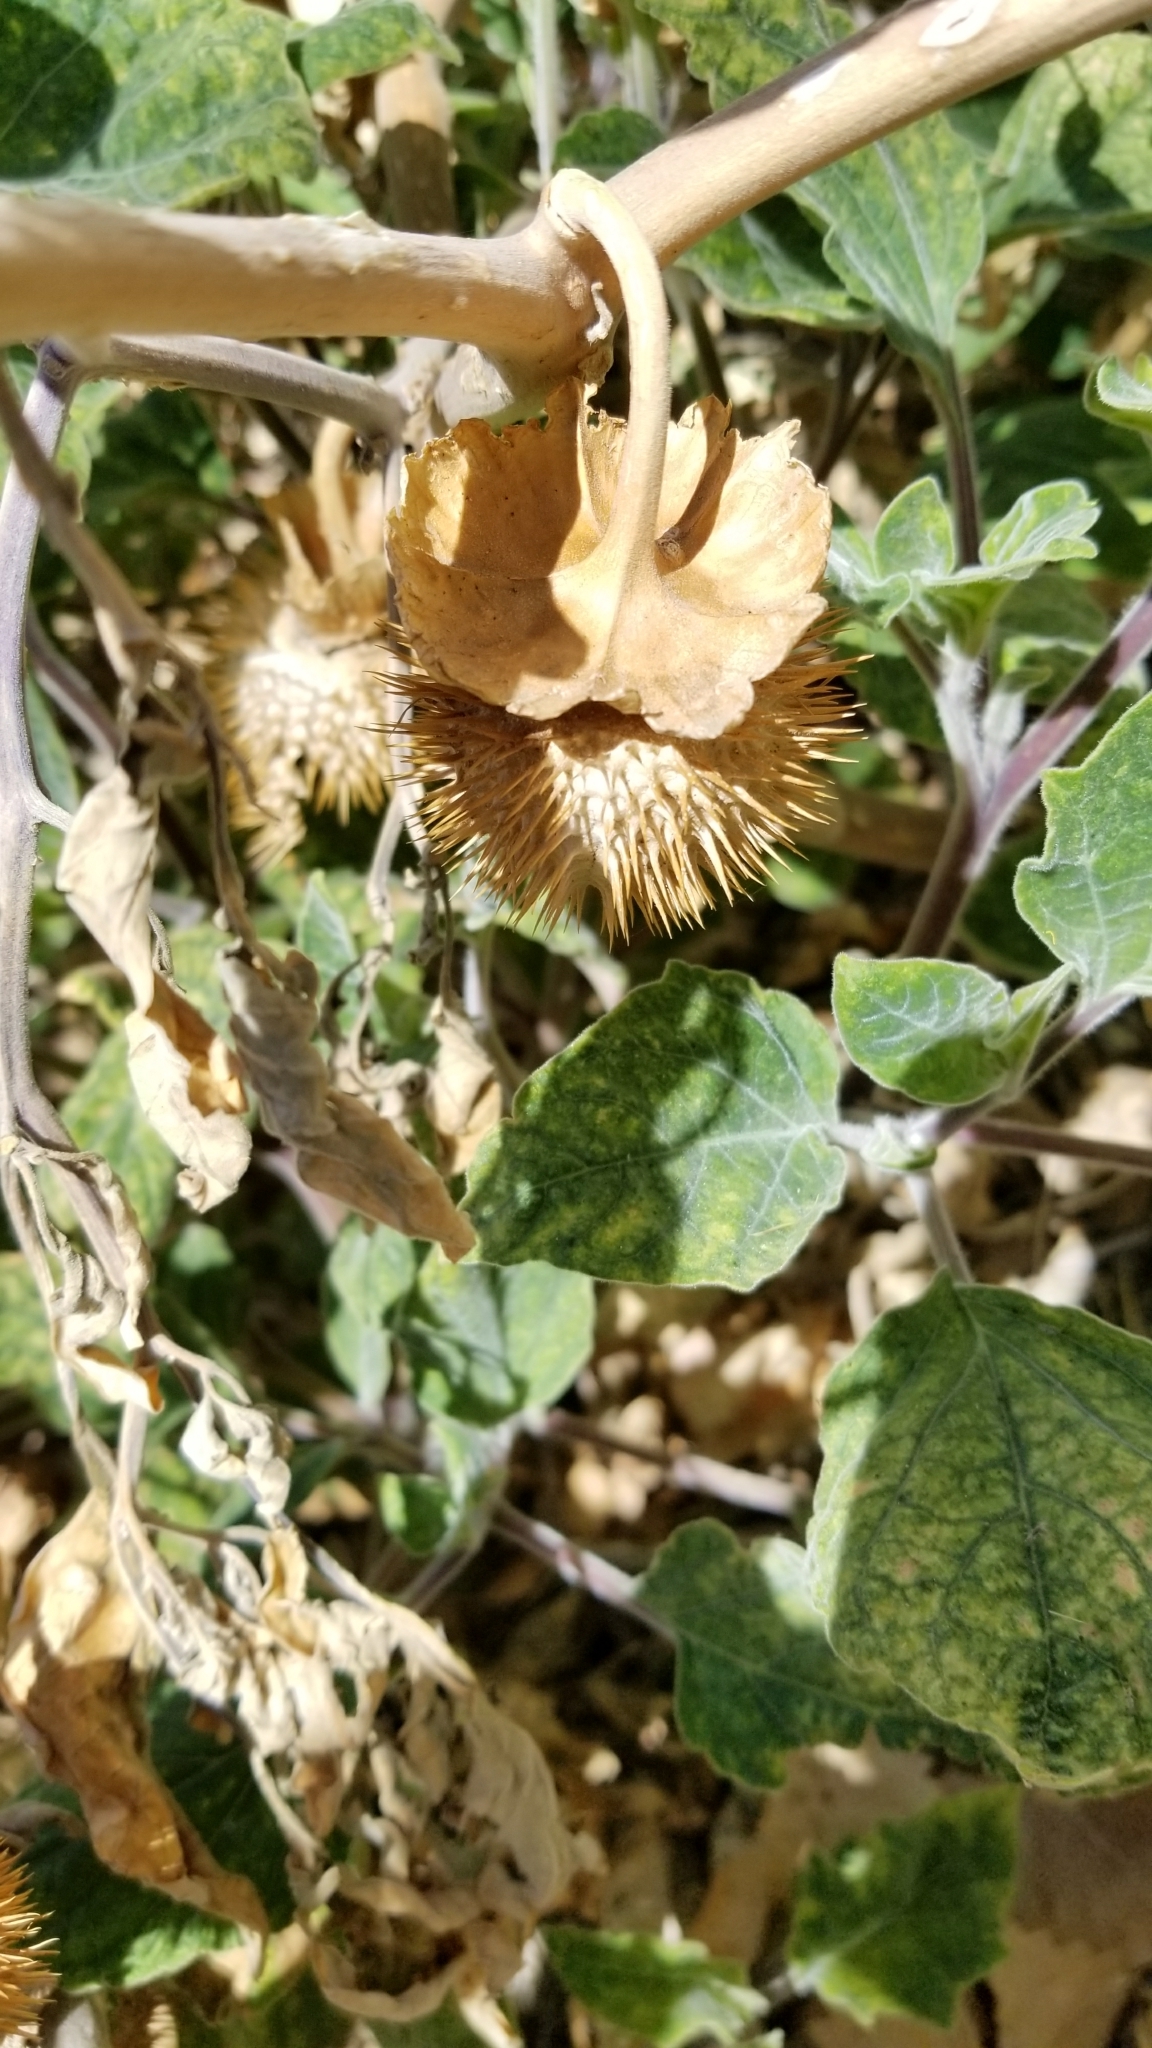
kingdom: Plantae
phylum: Tracheophyta
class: Magnoliopsida
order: Solanales
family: Solanaceae
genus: Datura
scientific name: Datura wrightii
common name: Sacred thorn-apple
